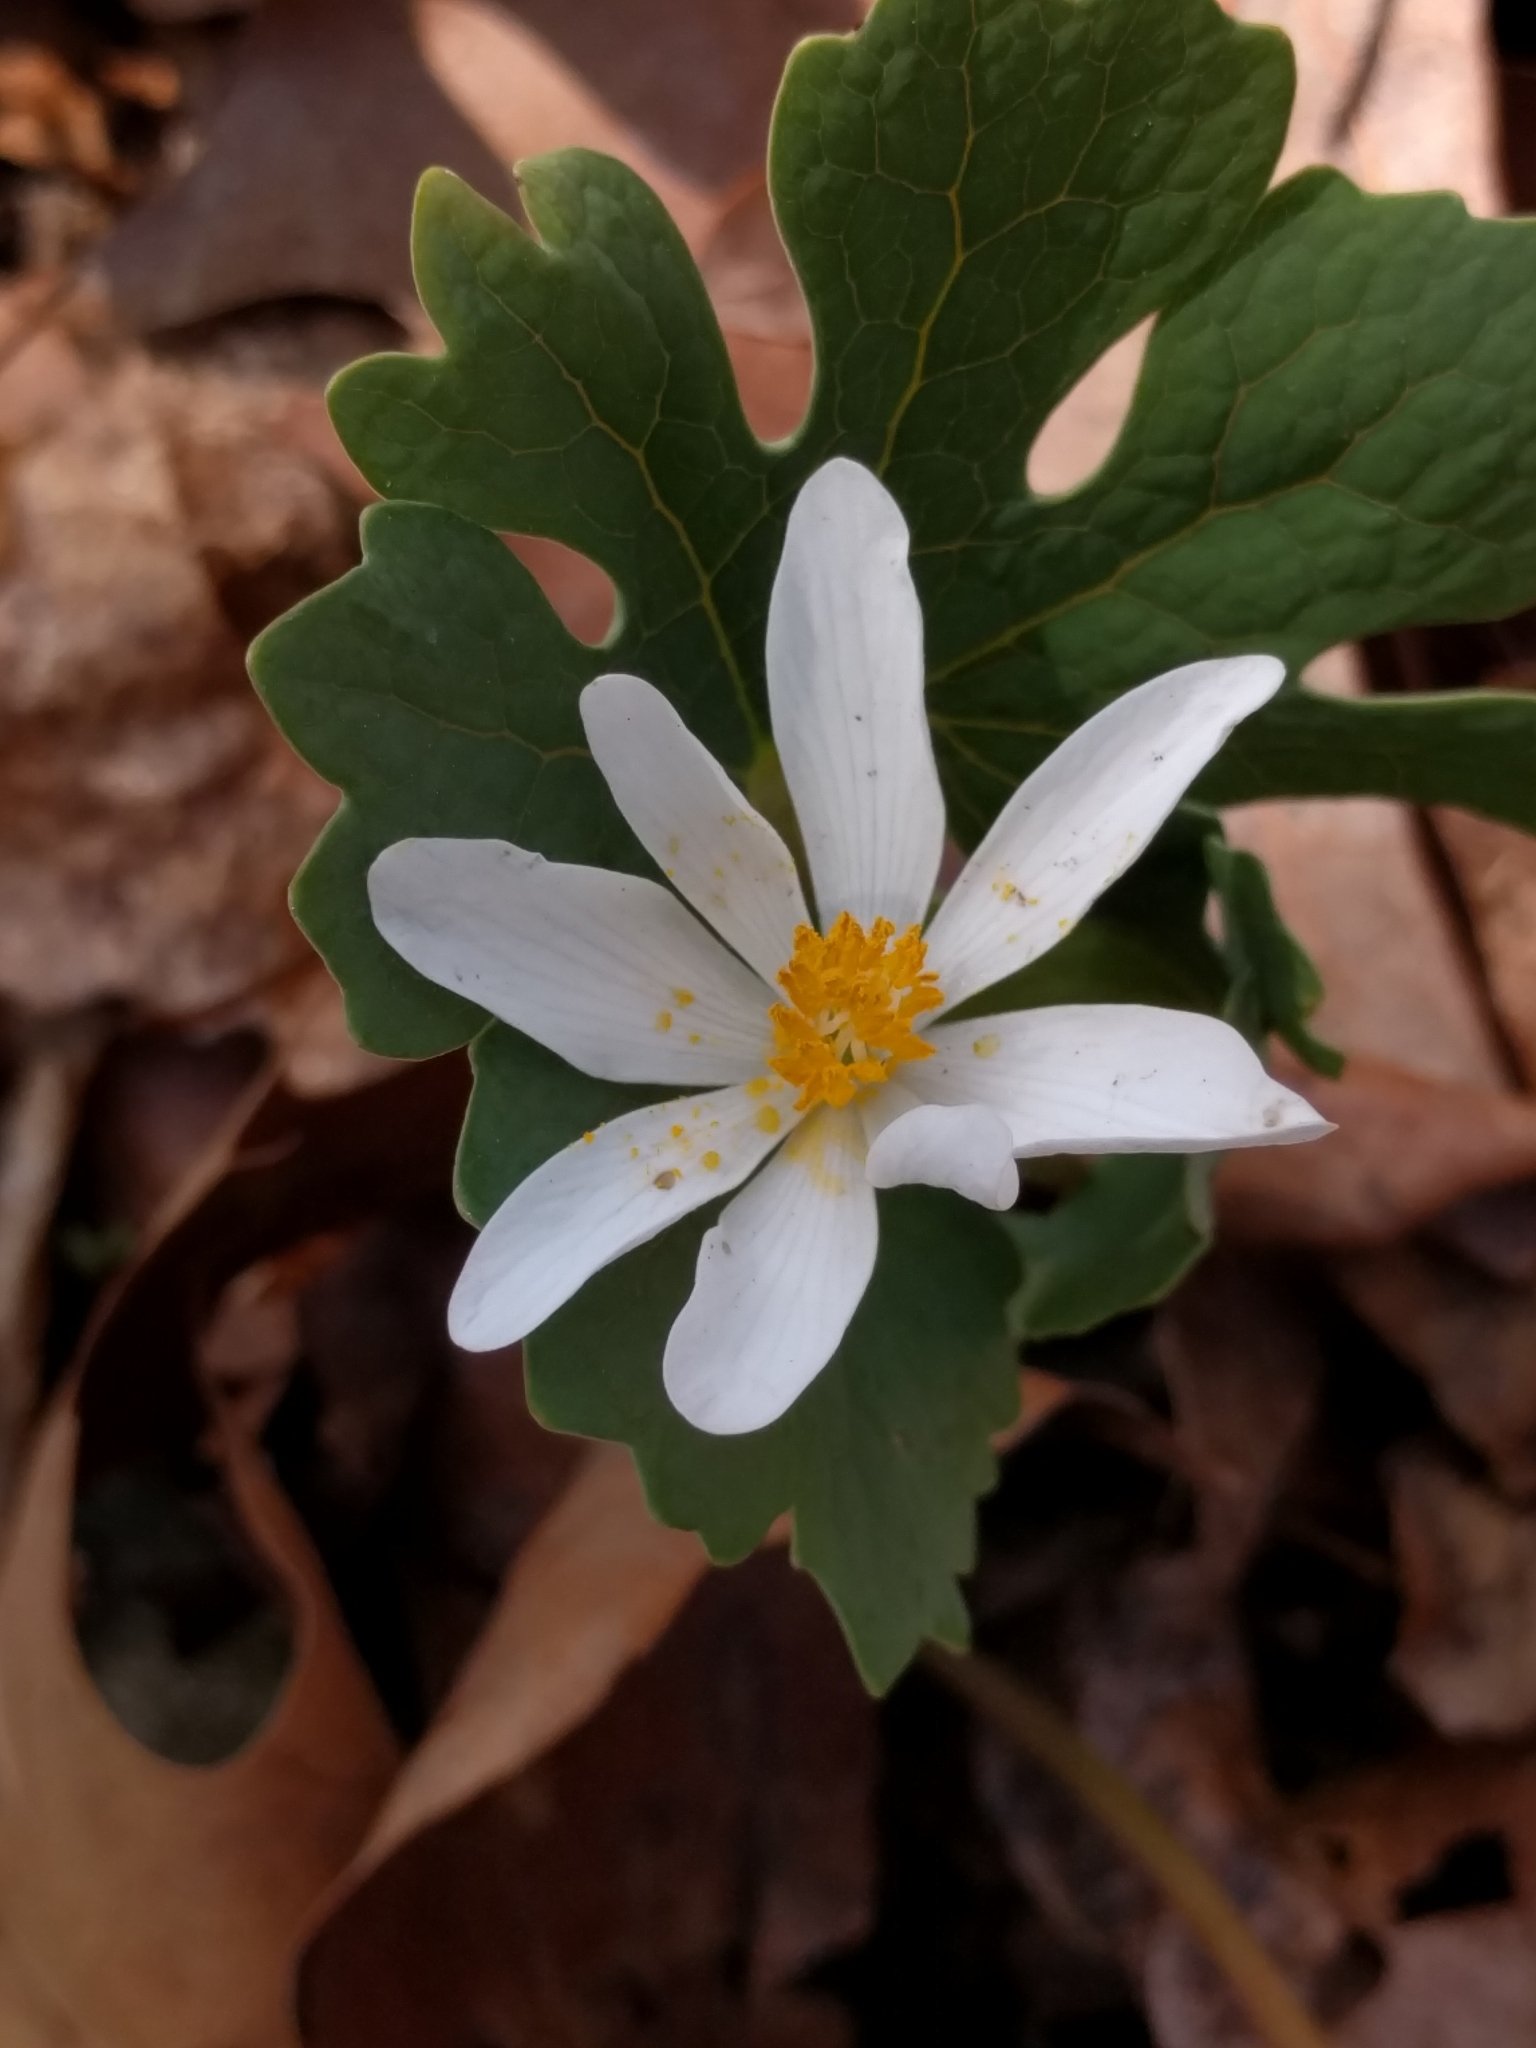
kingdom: Plantae
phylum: Tracheophyta
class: Magnoliopsida
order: Ranunculales
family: Papaveraceae
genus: Sanguinaria
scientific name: Sanguinaria canadensis
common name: Bloodroot
